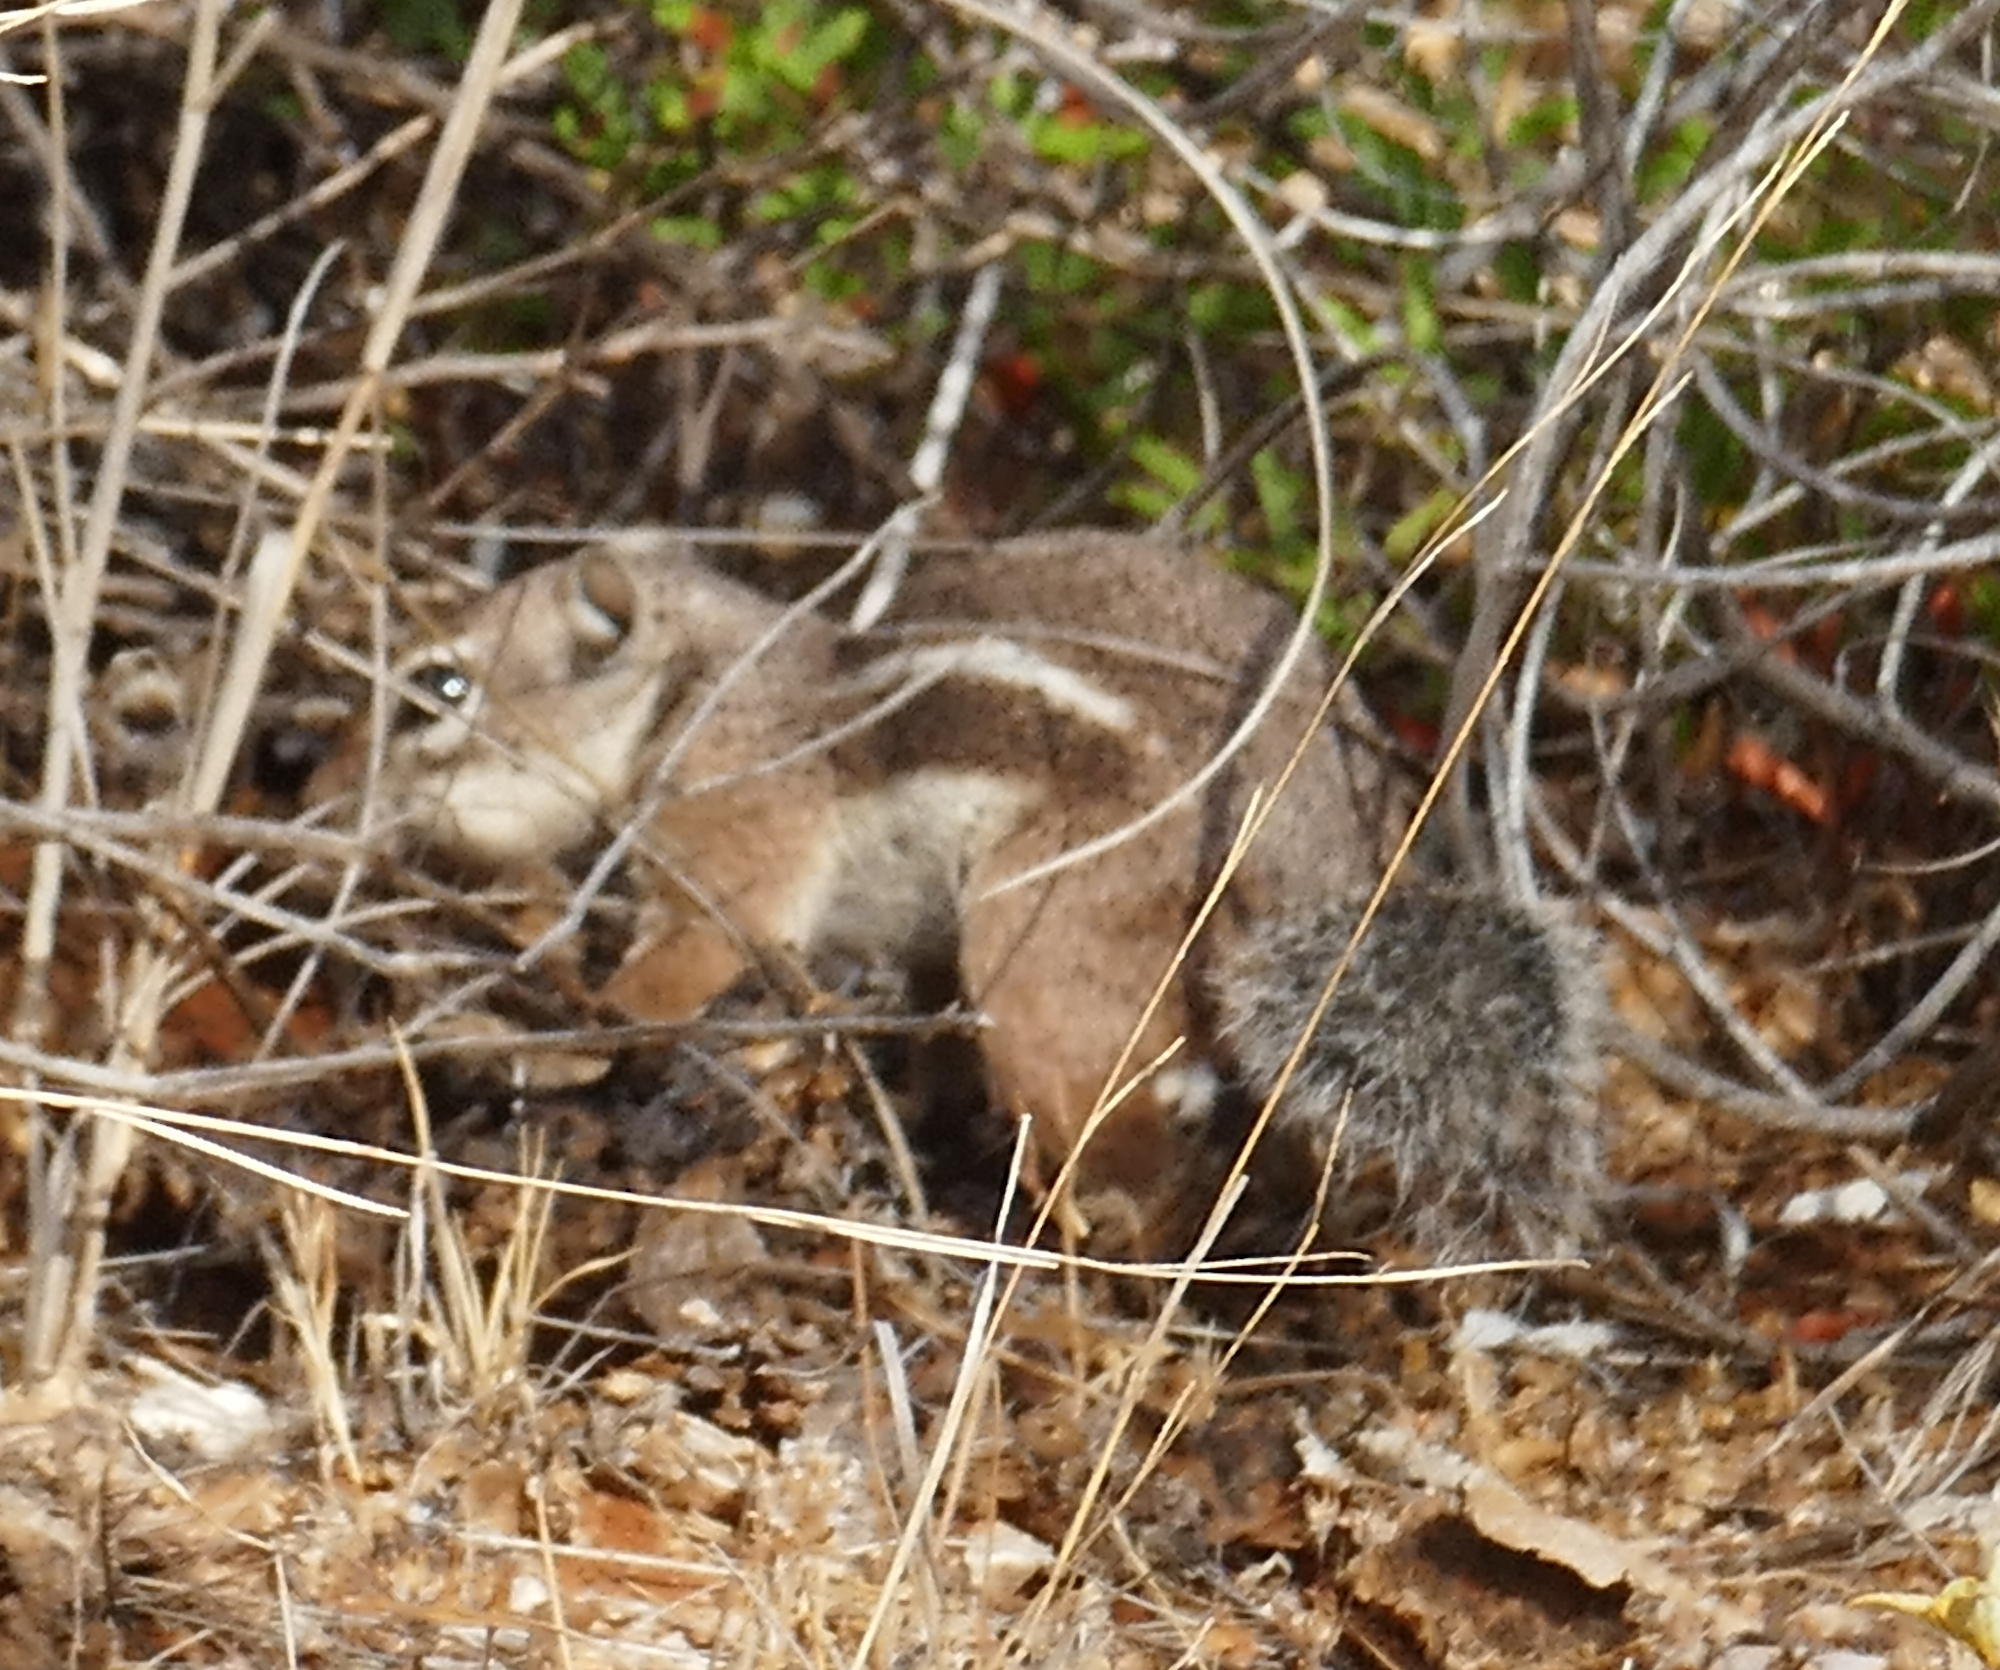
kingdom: Animalia
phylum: Chordata
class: Mammalia
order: Rodentia
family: Sciuridae
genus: Ammospermophilus
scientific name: Ammospermophilus harrisii
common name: Harris's antelope squirrel
